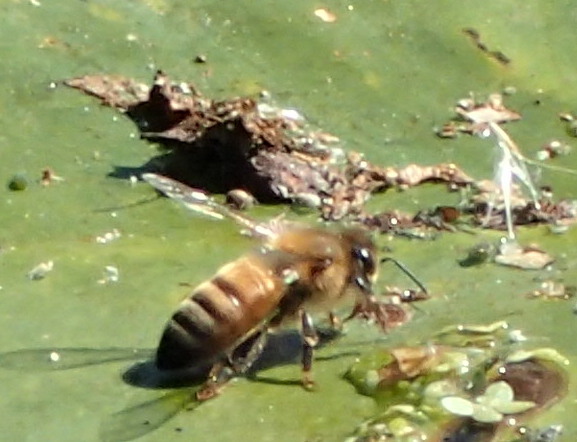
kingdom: Animalia
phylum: Arthropoda
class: Insecta
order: Hymenoptera
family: Apidae
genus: Apis
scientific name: Apis mellifera
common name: Honey bee
